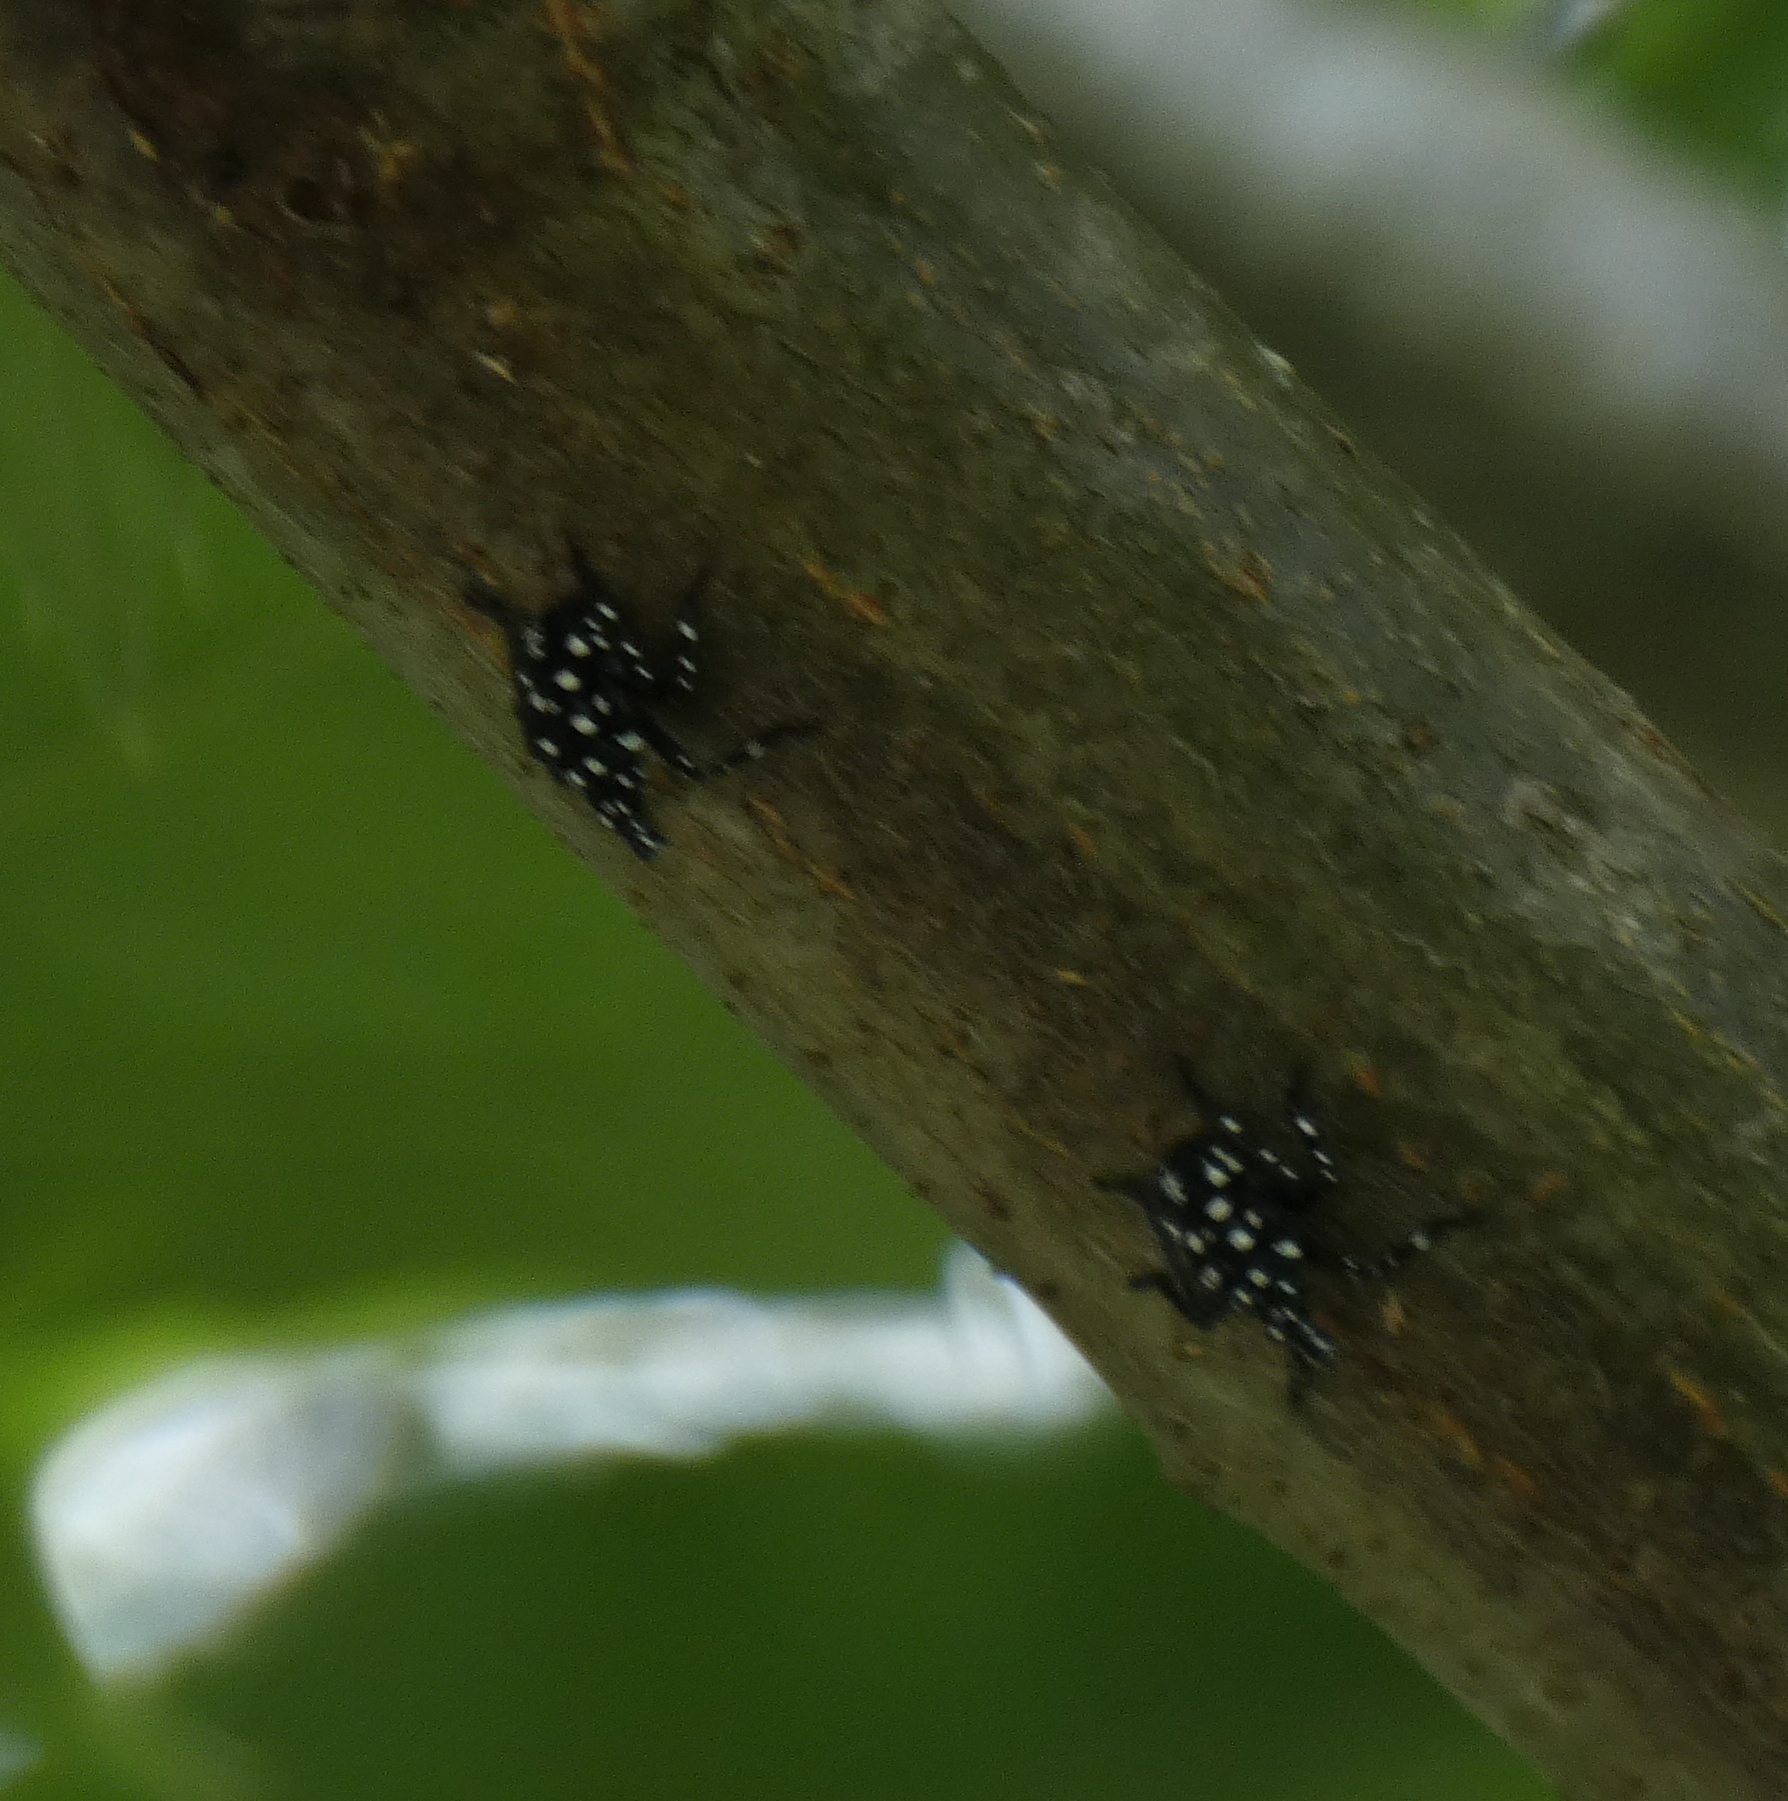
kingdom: Animalia
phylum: Arthropoda
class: Insecta
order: Hemiptera
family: Fulgoridae
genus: Lycorma
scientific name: Lycorma delicatula
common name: Spotted lanternfly
